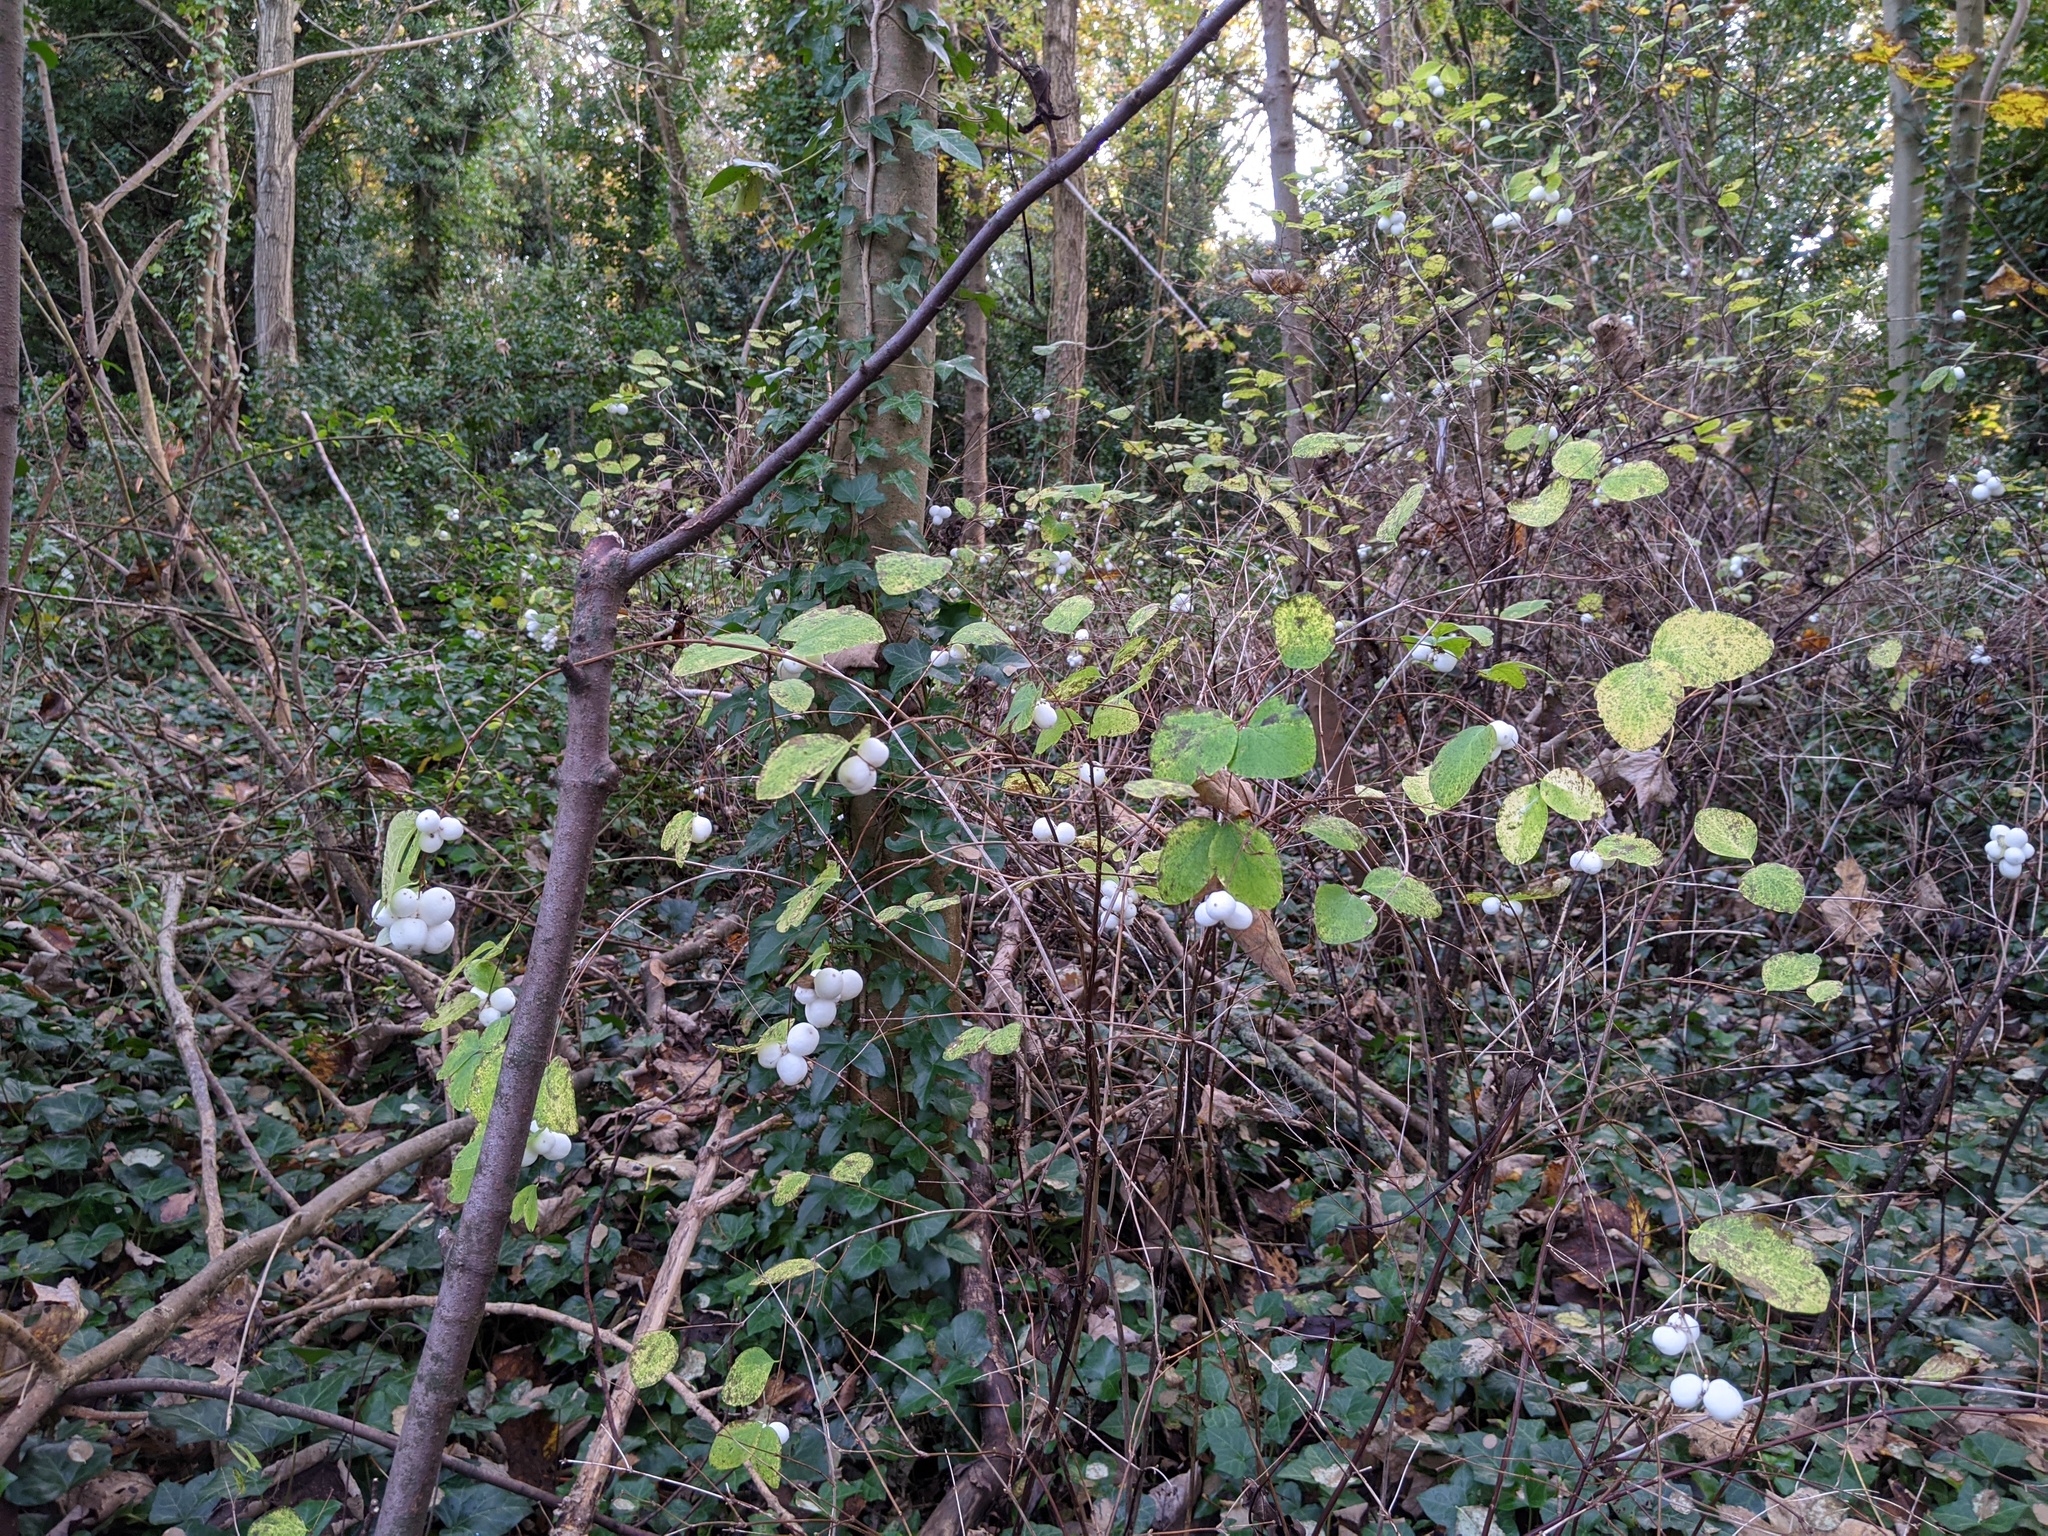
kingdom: Plantae
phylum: Tracheophyta
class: Magnoliopsida
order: Dipsacales
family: Caprifoliaceae
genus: Symphoricarpos
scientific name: Symphoricarpos albus
